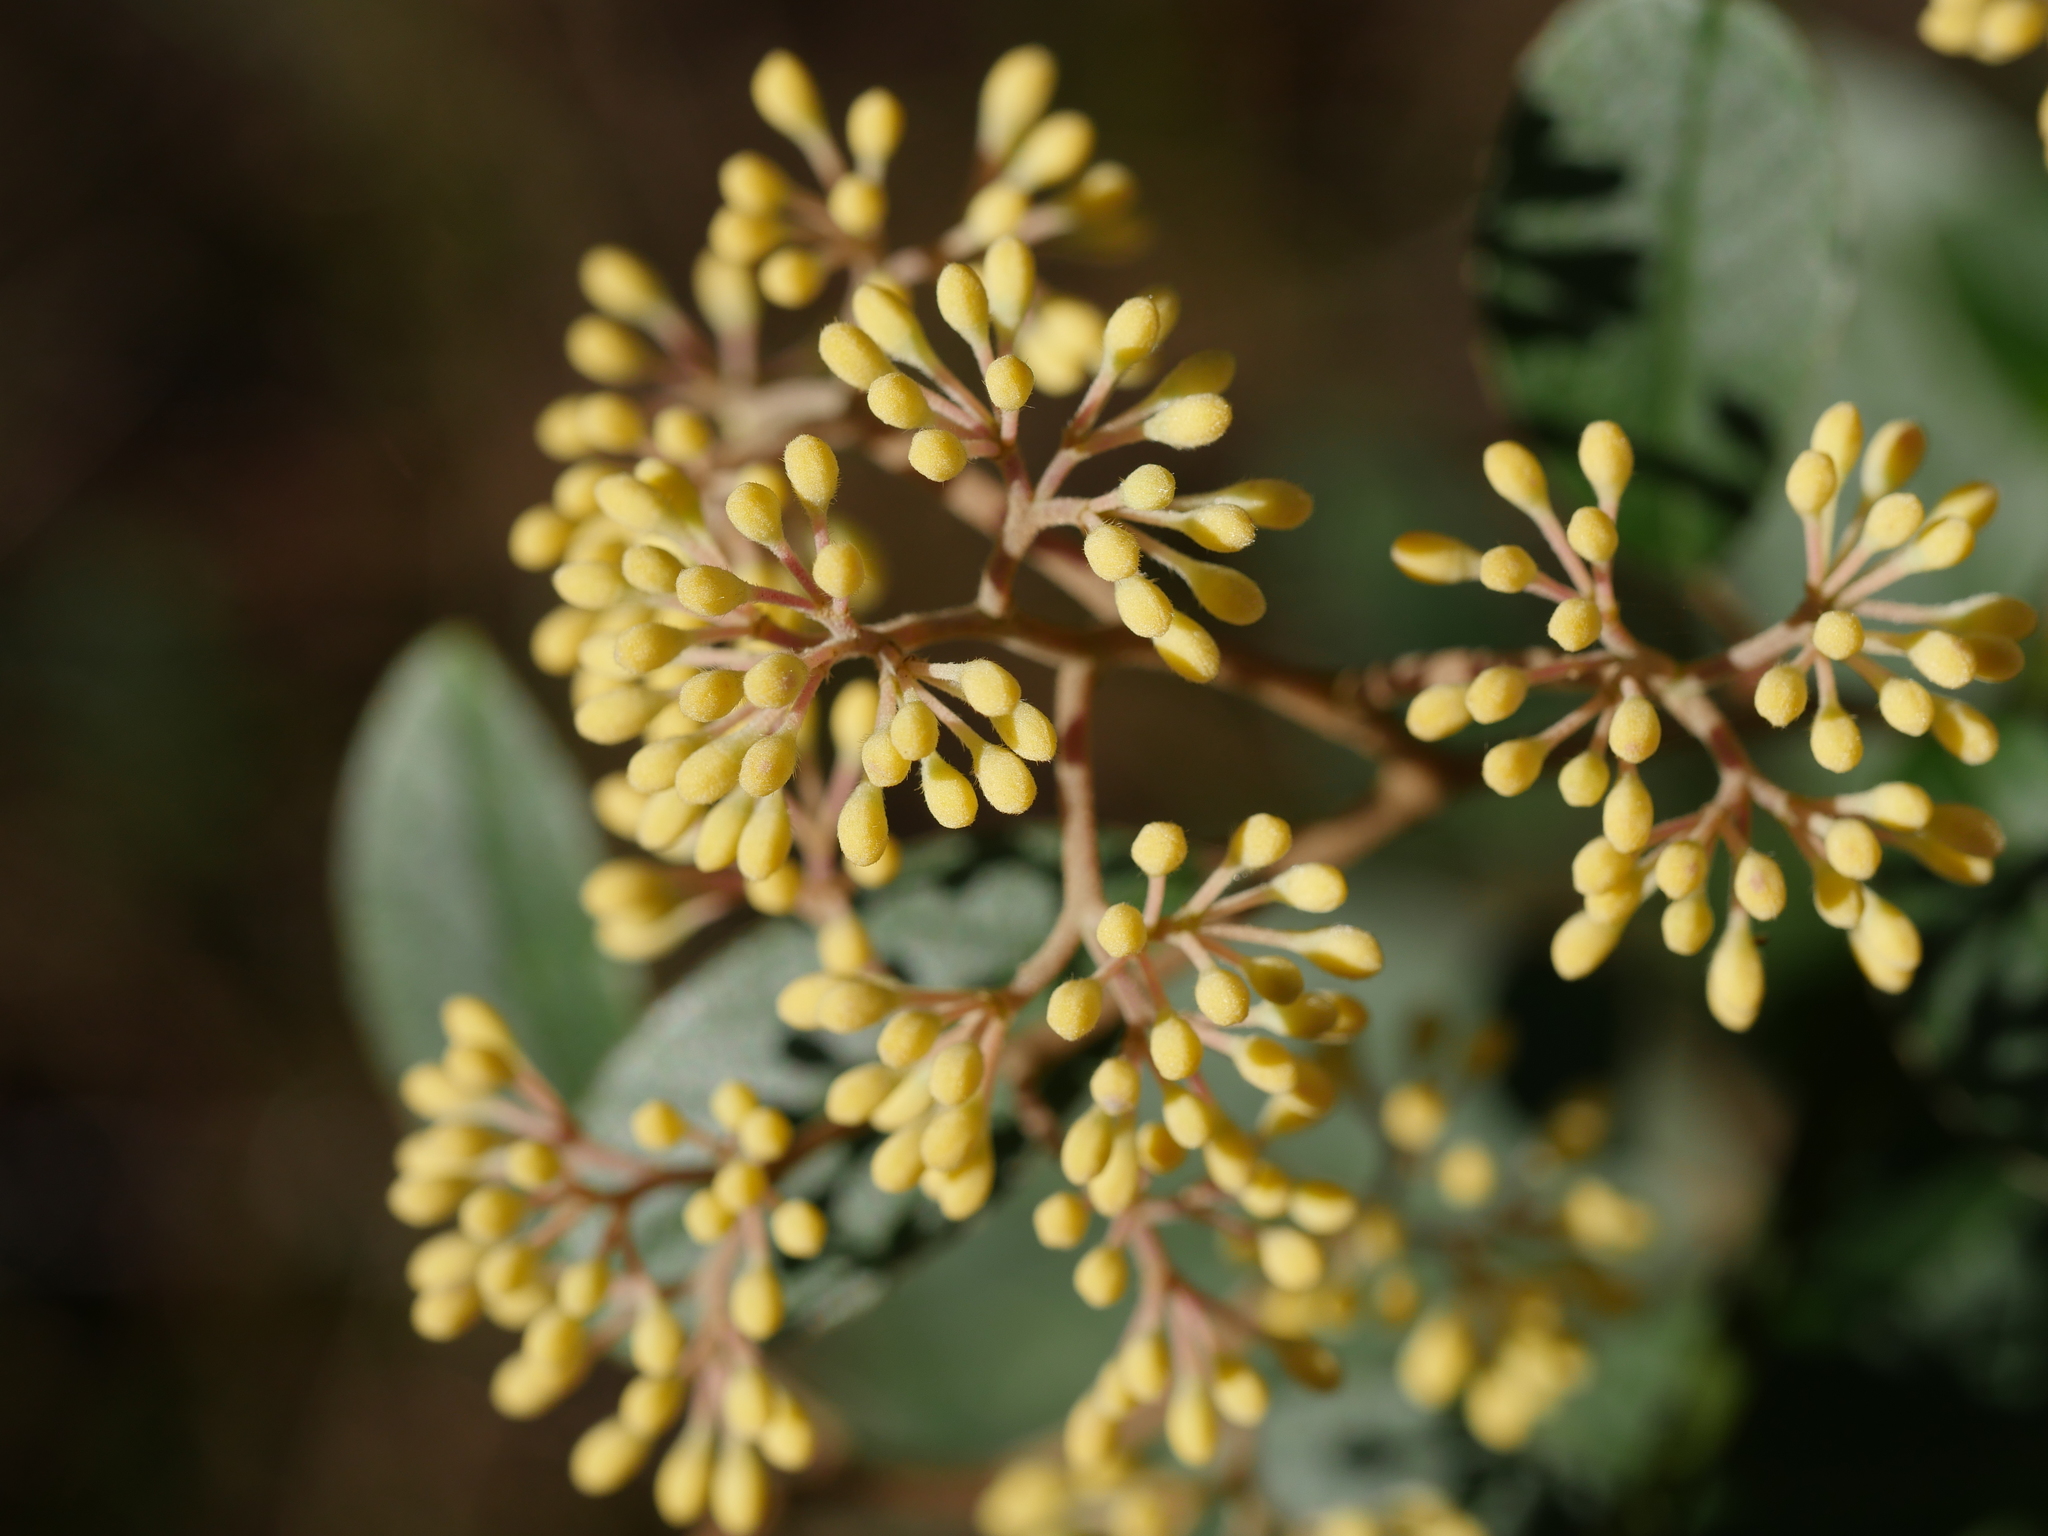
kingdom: Plantae
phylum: Tracheophyta
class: Magnoliopsida
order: Rosales
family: Rhamnaceae
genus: Pomaderris
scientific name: Pomaderris kumeraho
